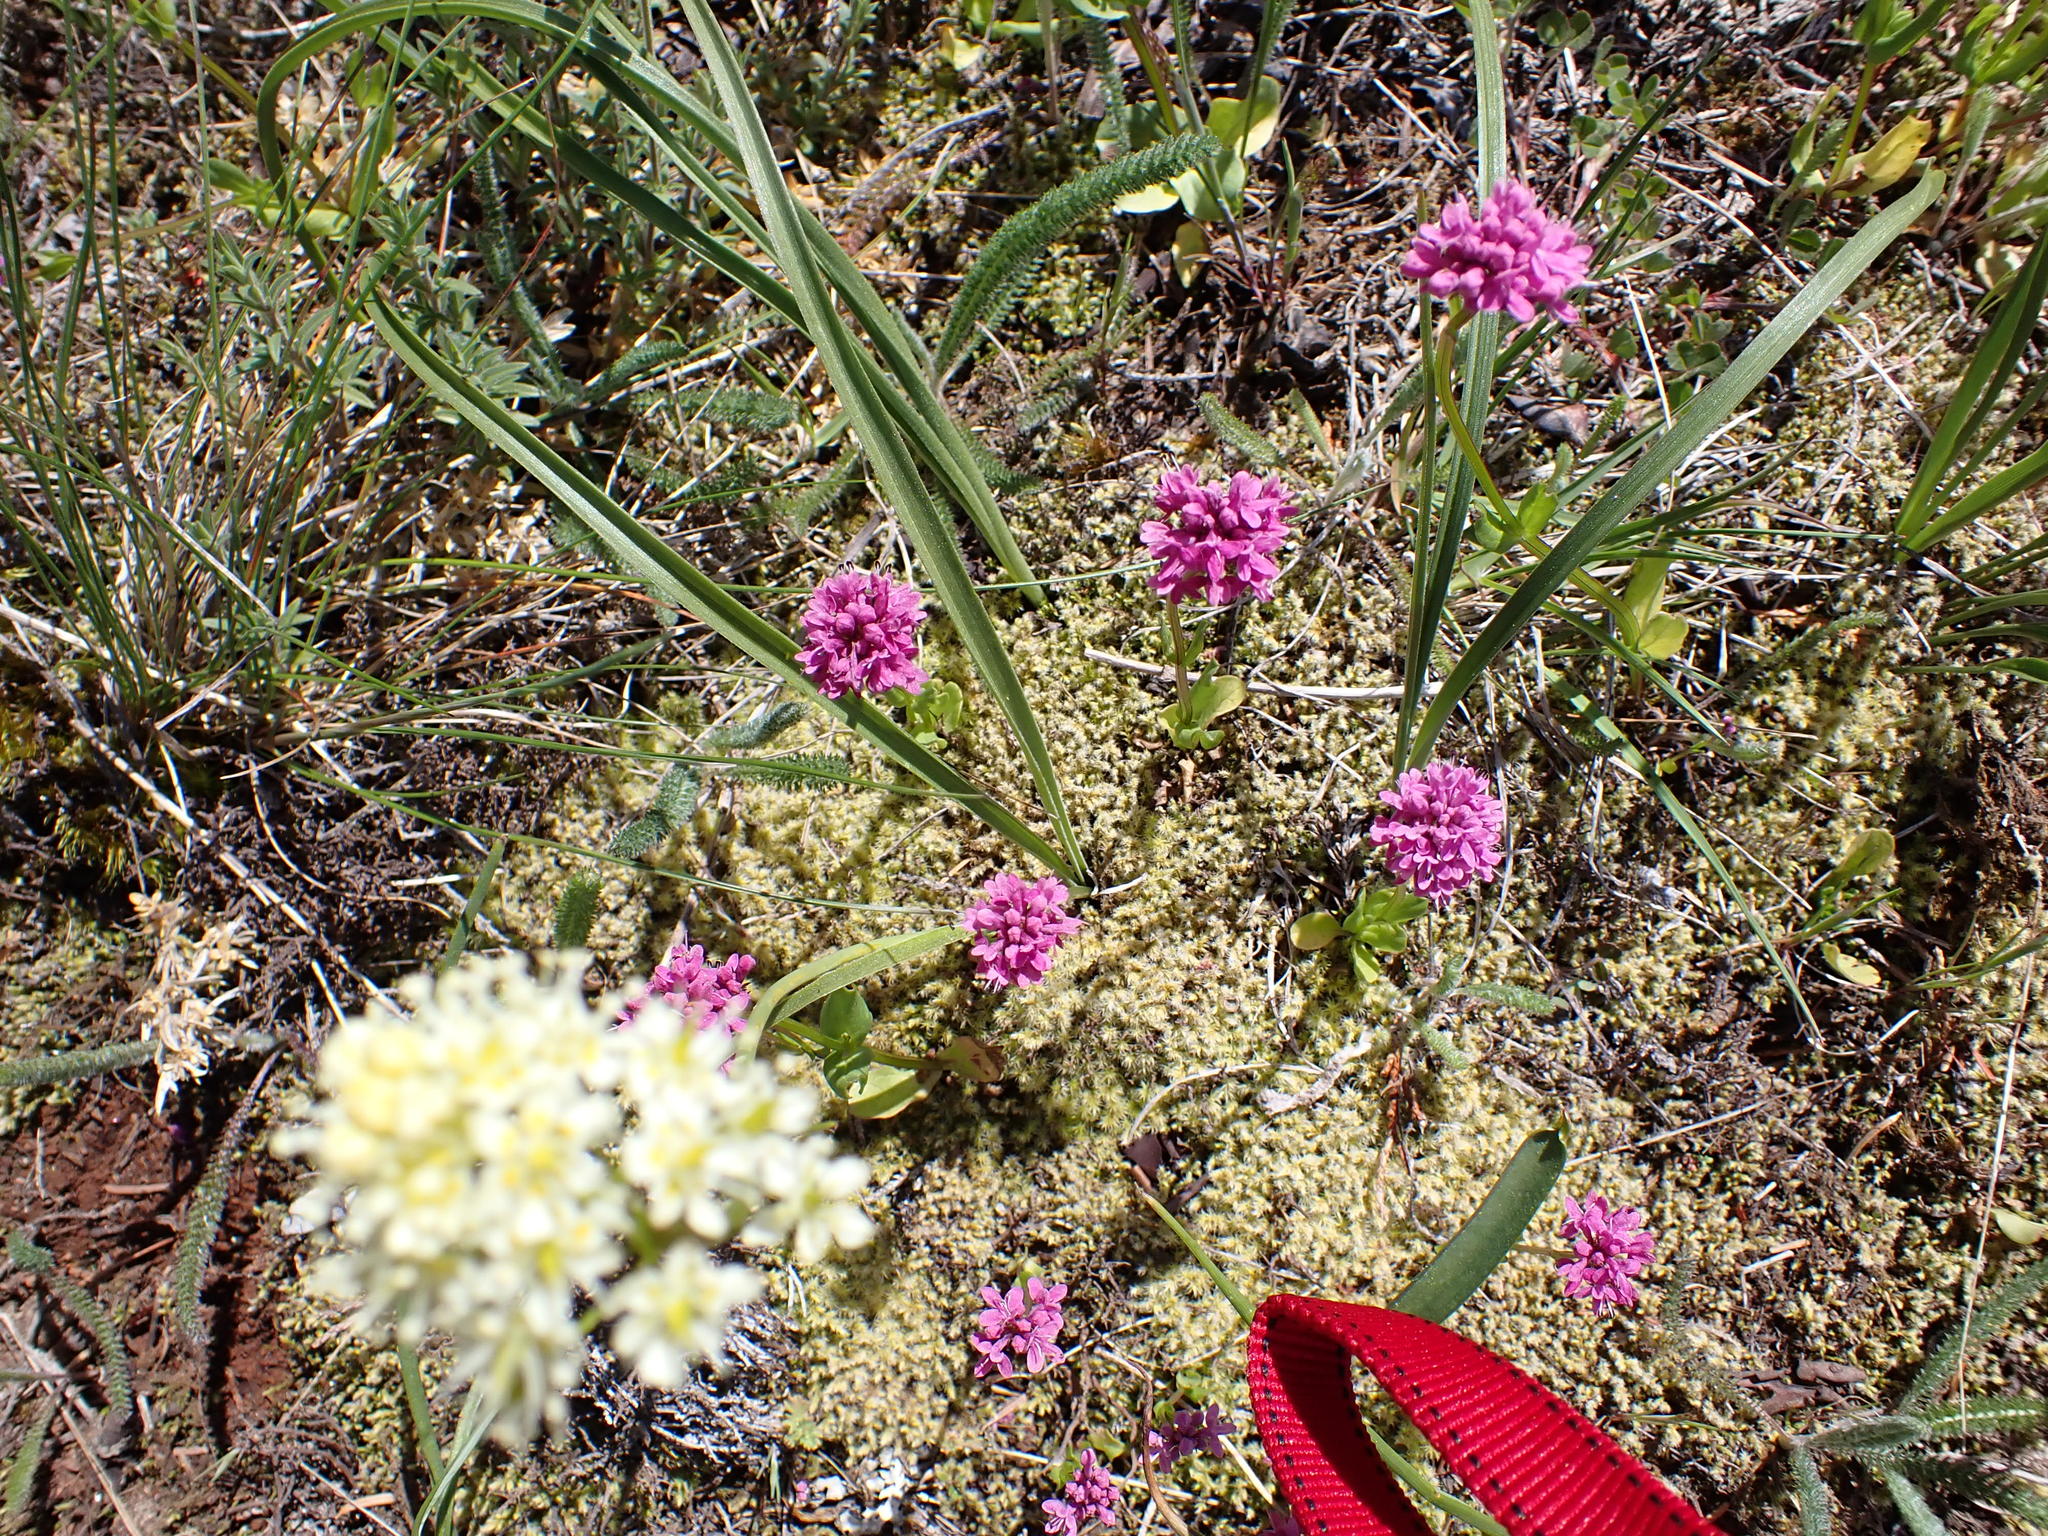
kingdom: Plantae
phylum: Tracheophyta
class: Liliopsida
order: Liliales
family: Melanthiaceae
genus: Toxicoscordion
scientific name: Toxicoscordion venenosum
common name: Meadow death camas
